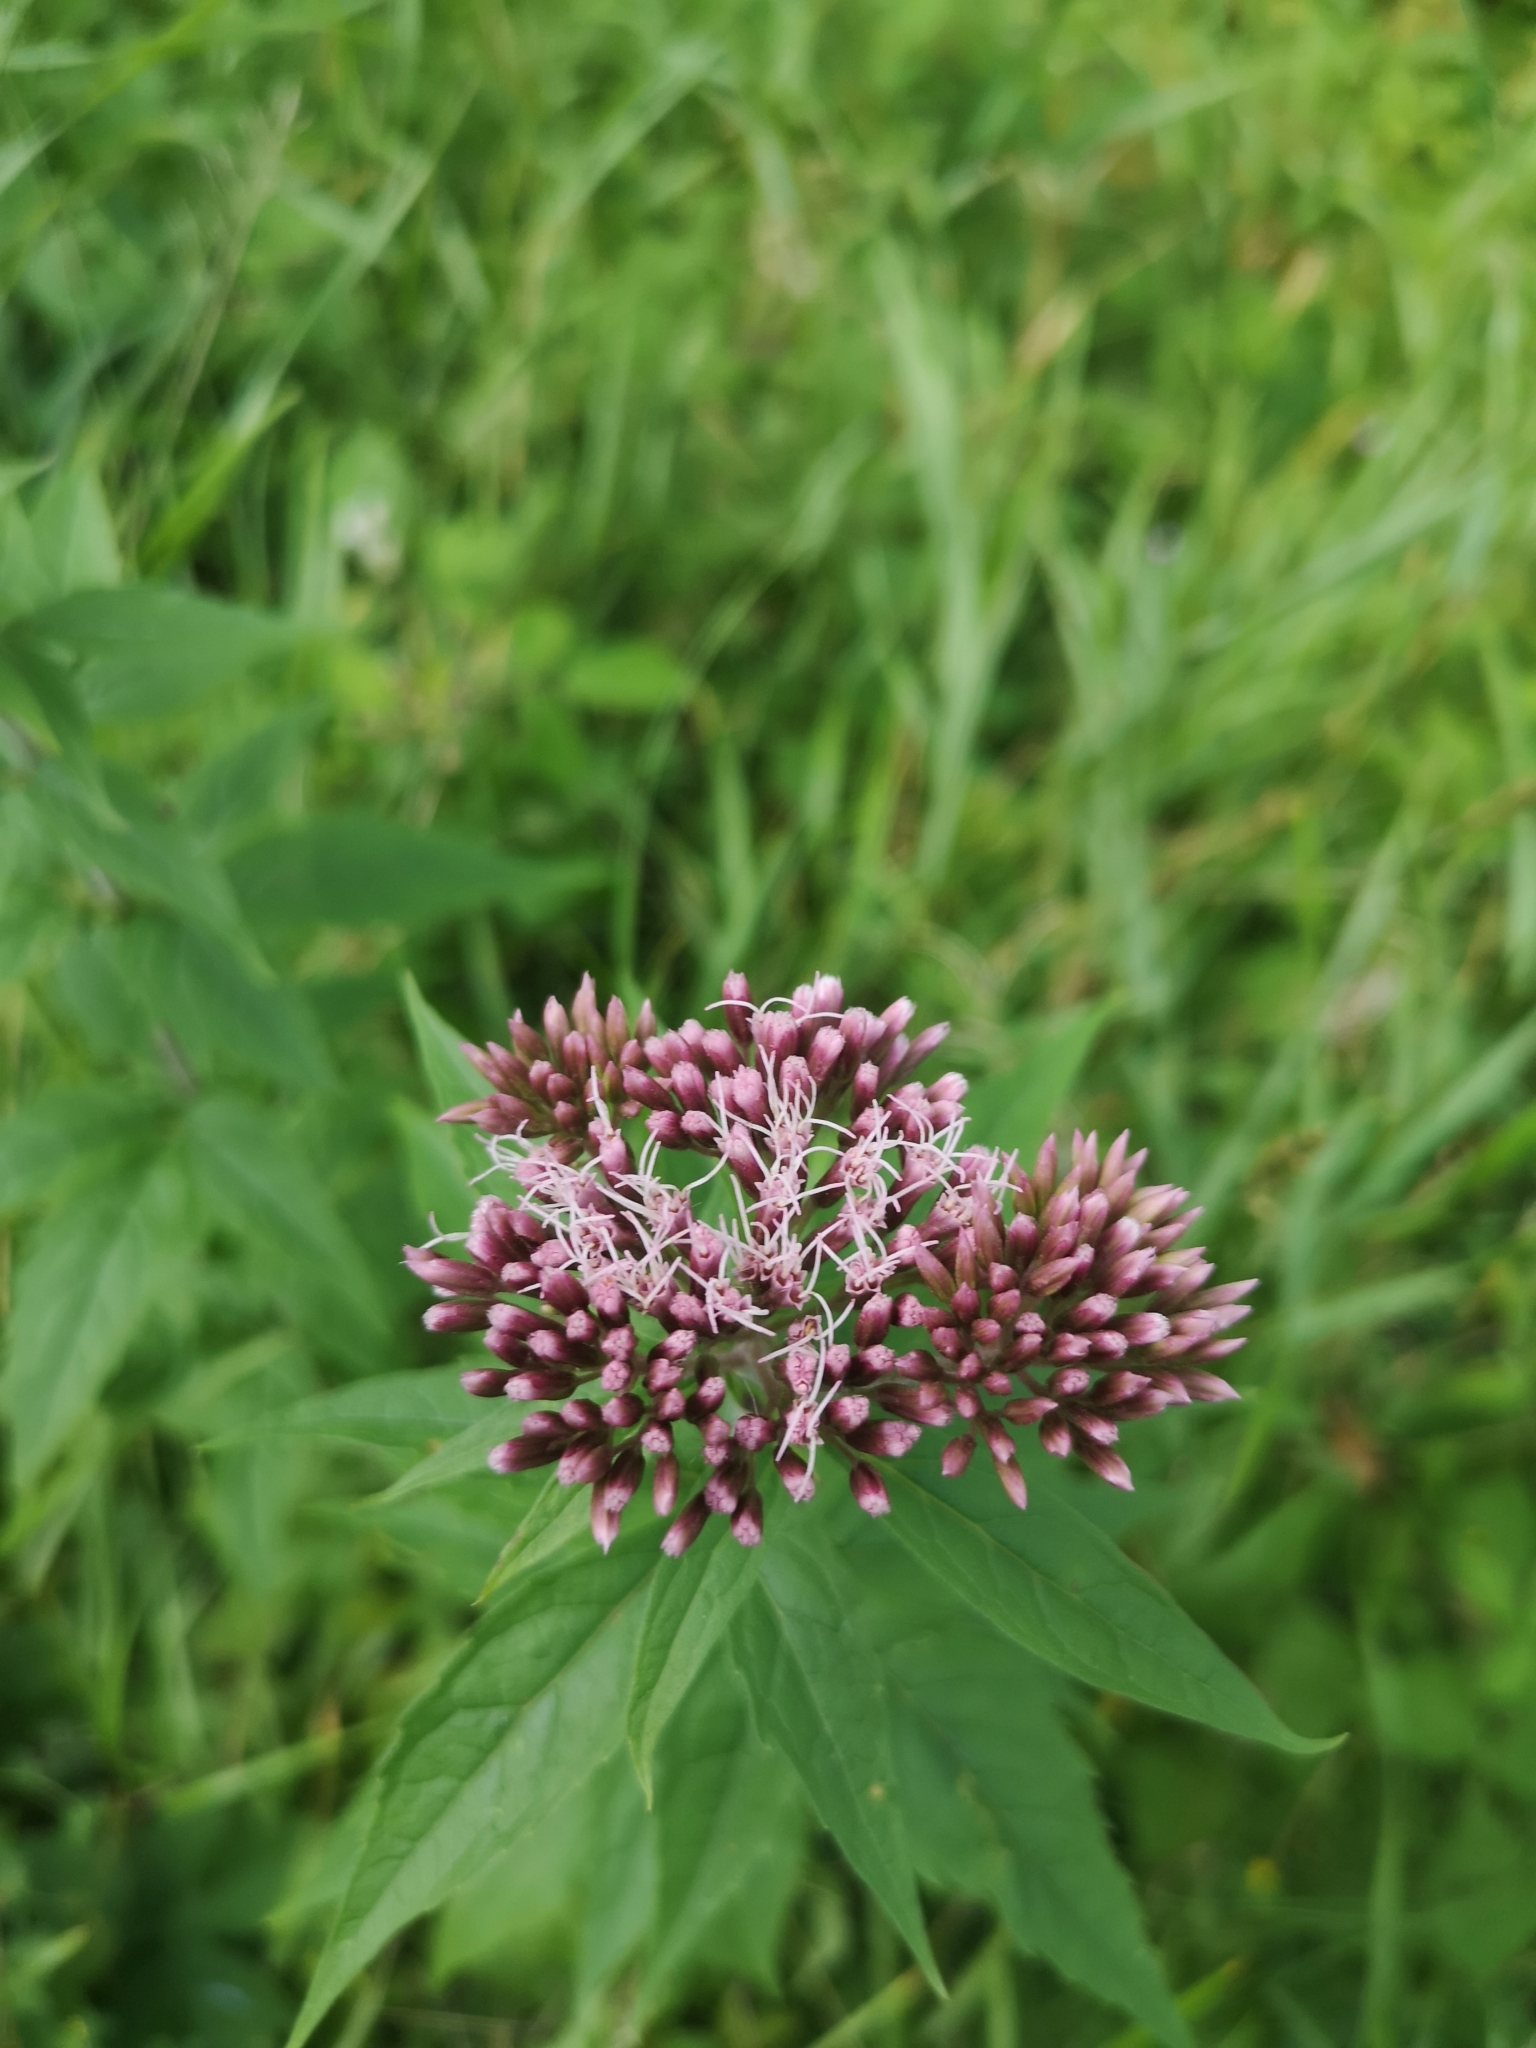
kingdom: Plantae
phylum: Tracheophyta
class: Magnoliopsida
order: Asterales
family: Asteraceae
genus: Eupatorium
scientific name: Eupatorium cannabinum
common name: Hemp-agrimony
